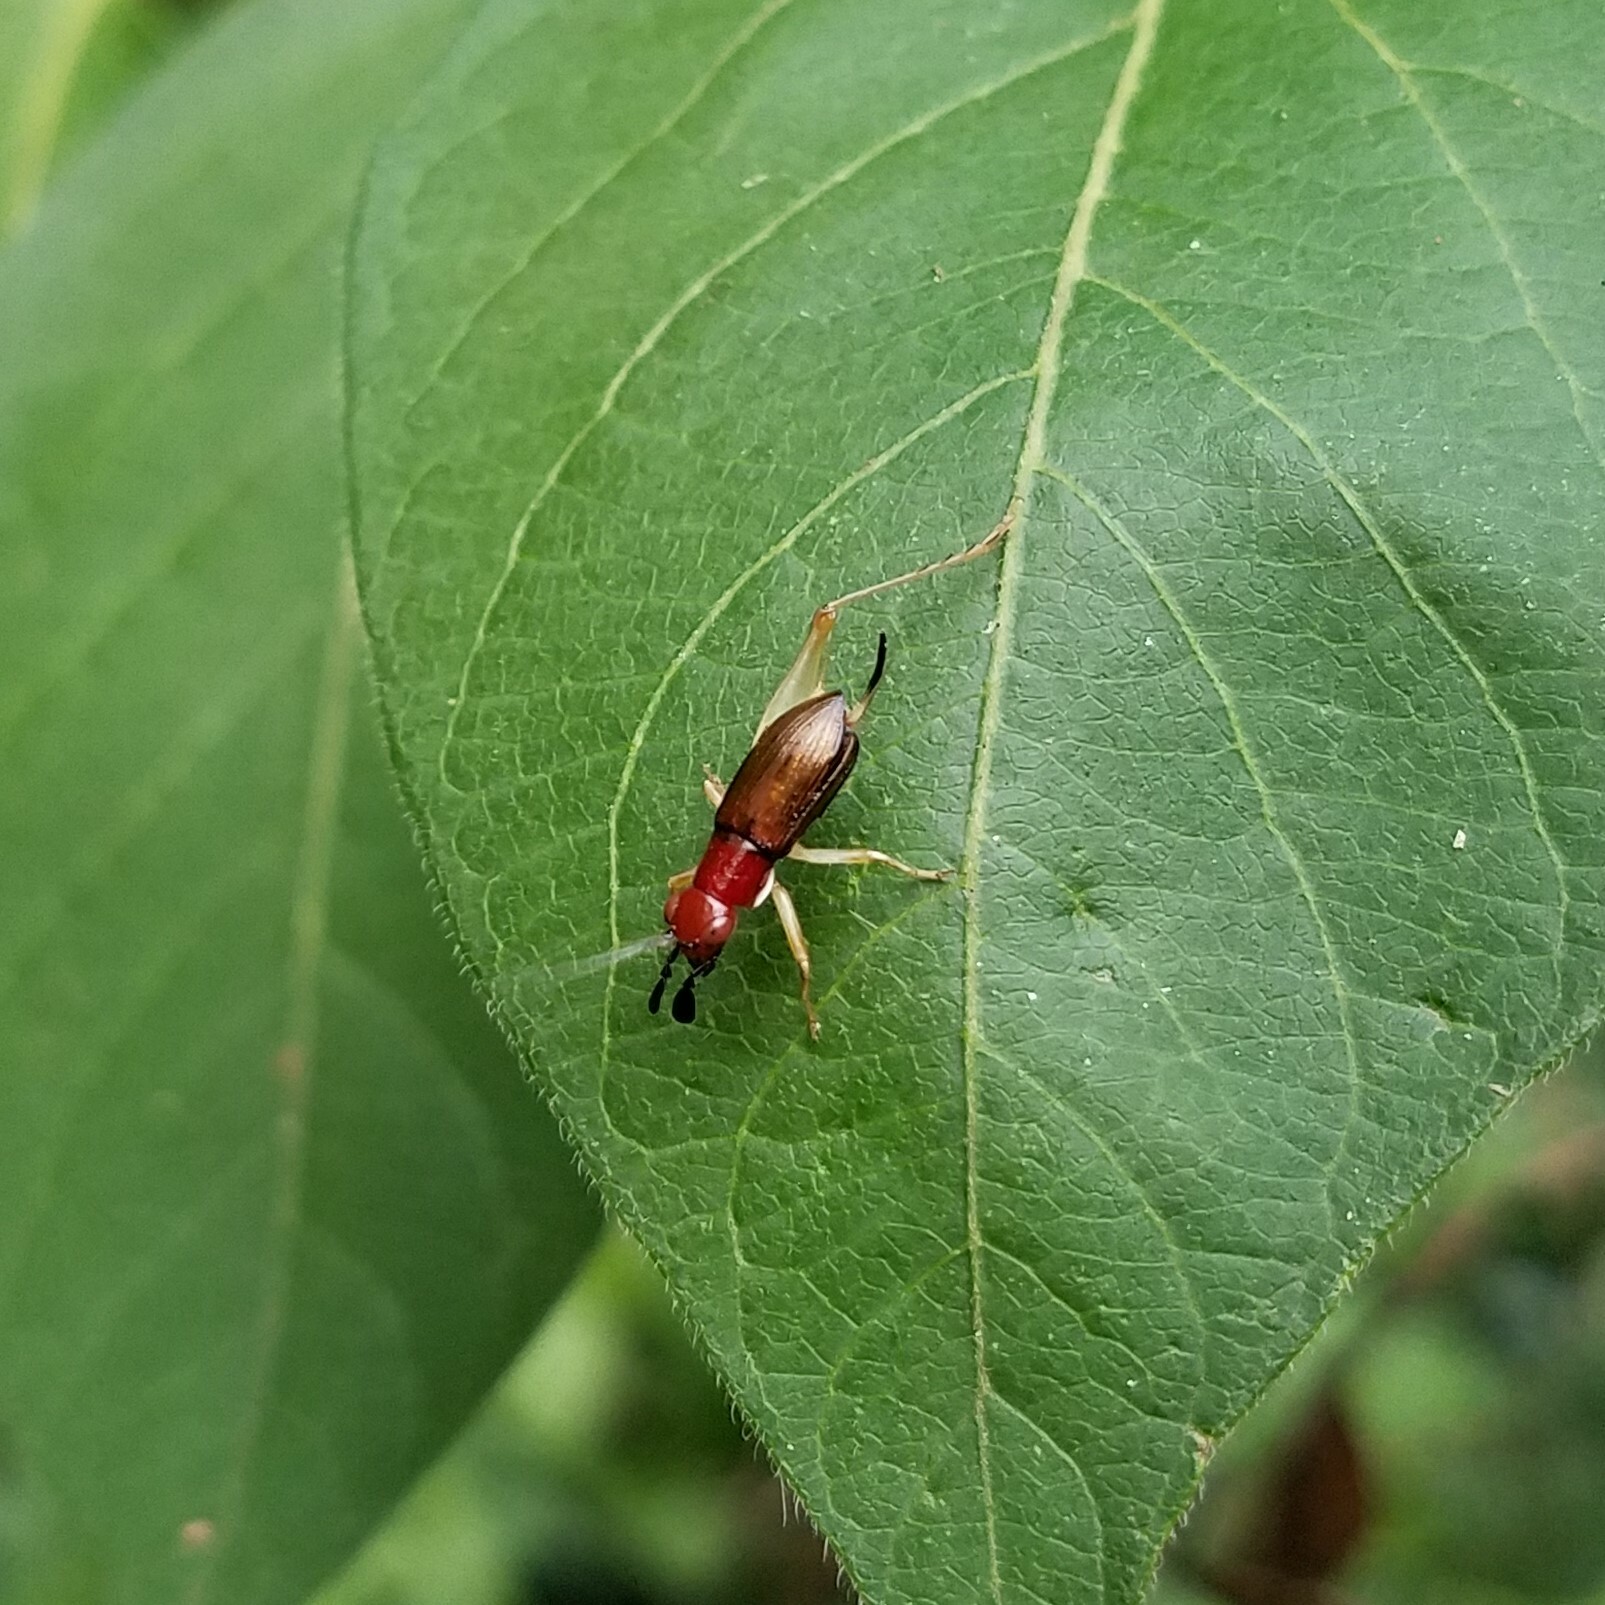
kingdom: Animalia
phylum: Arthropoda
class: Insecta
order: Orthoptera
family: Trigonidiidae
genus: Phyllopalpus
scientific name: Phyllopalpus pulchellus
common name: Handsome trig
